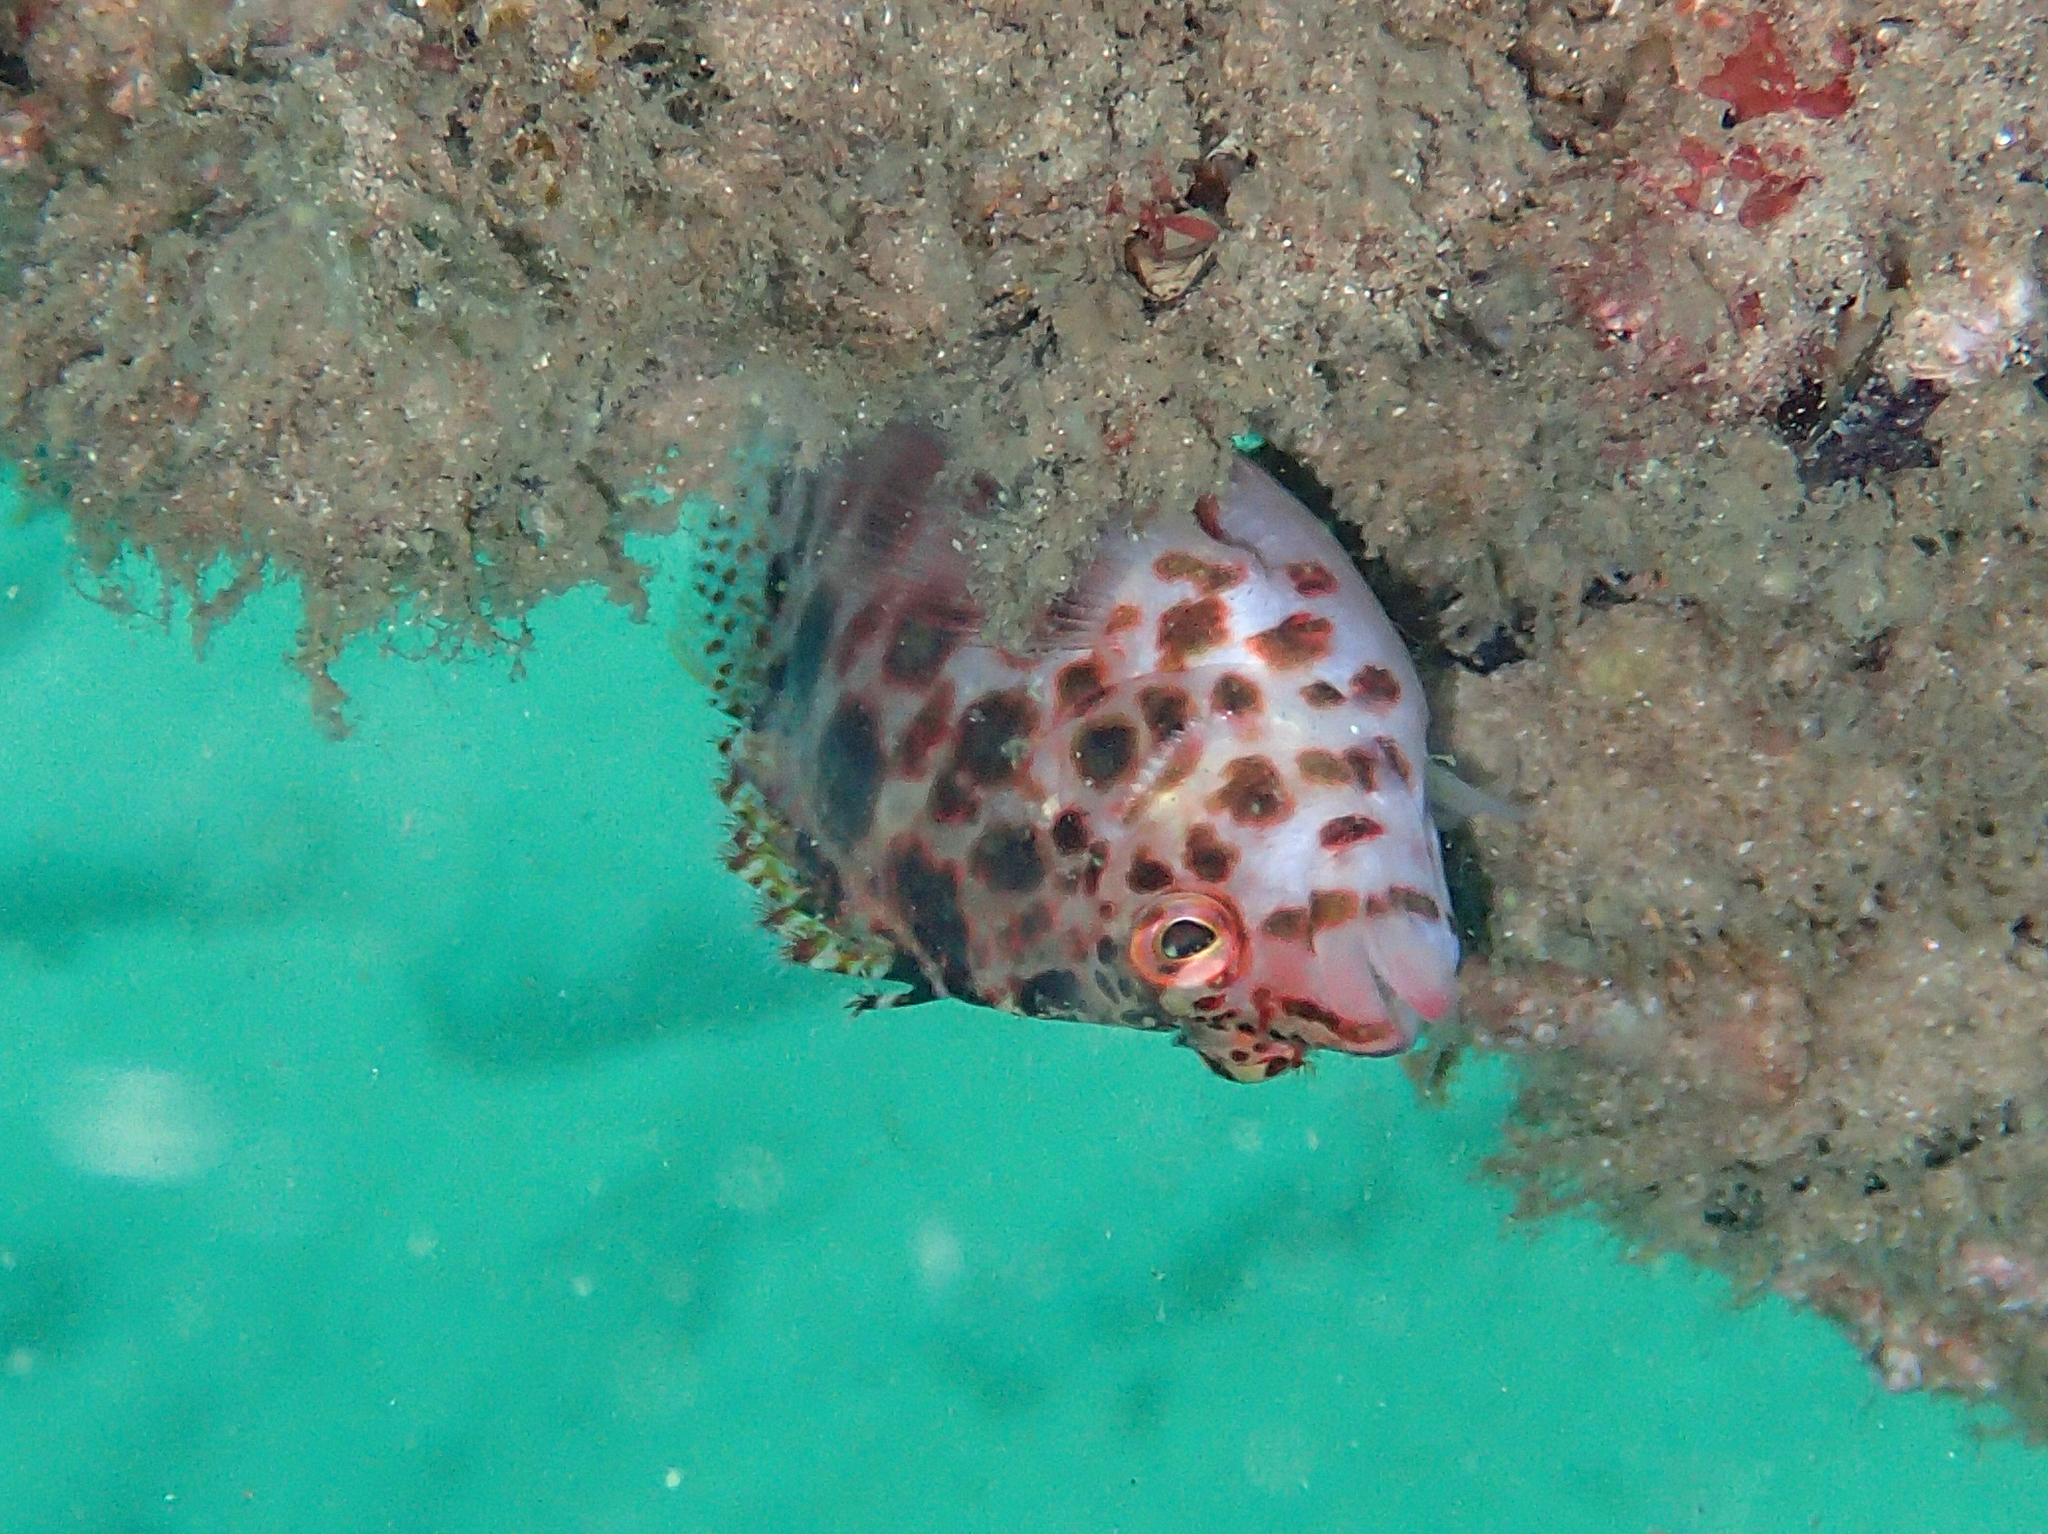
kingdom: Animalia
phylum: Chordata
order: Perciformes
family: Cirrhitidae
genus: Cirrhitichthys
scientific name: Cirrhitichthys oxycephalus
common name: Spotted hawkfish
